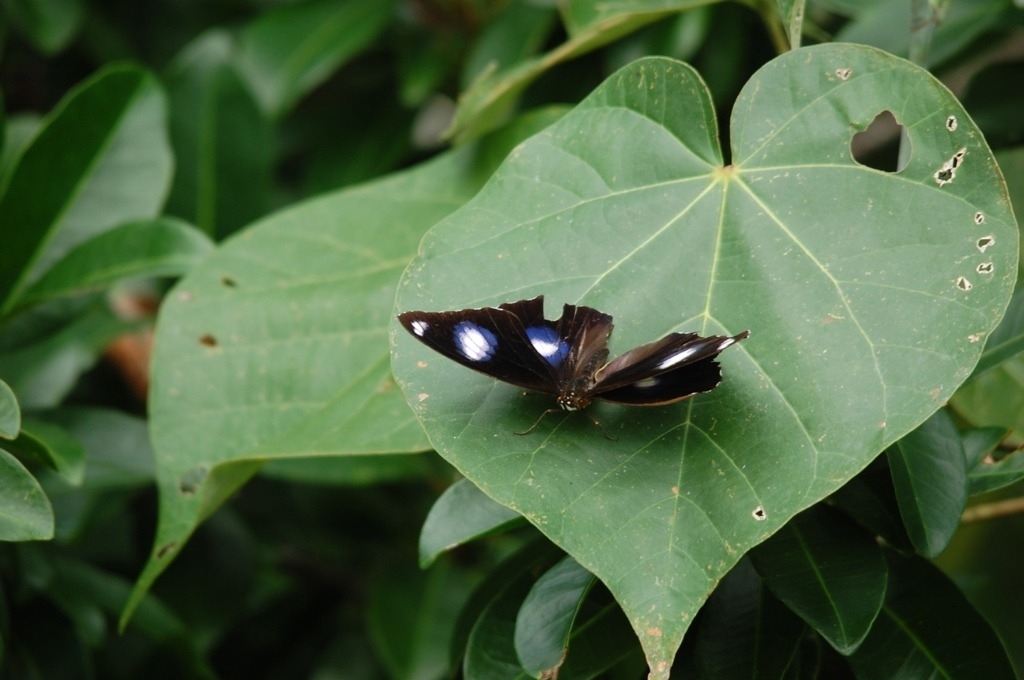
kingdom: Animalia
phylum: Arthropoda
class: Insecta
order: Lepidoptera
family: Nymphalidae
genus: Hypolimnas
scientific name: Hypolimnas bolina
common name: Great eggfly
